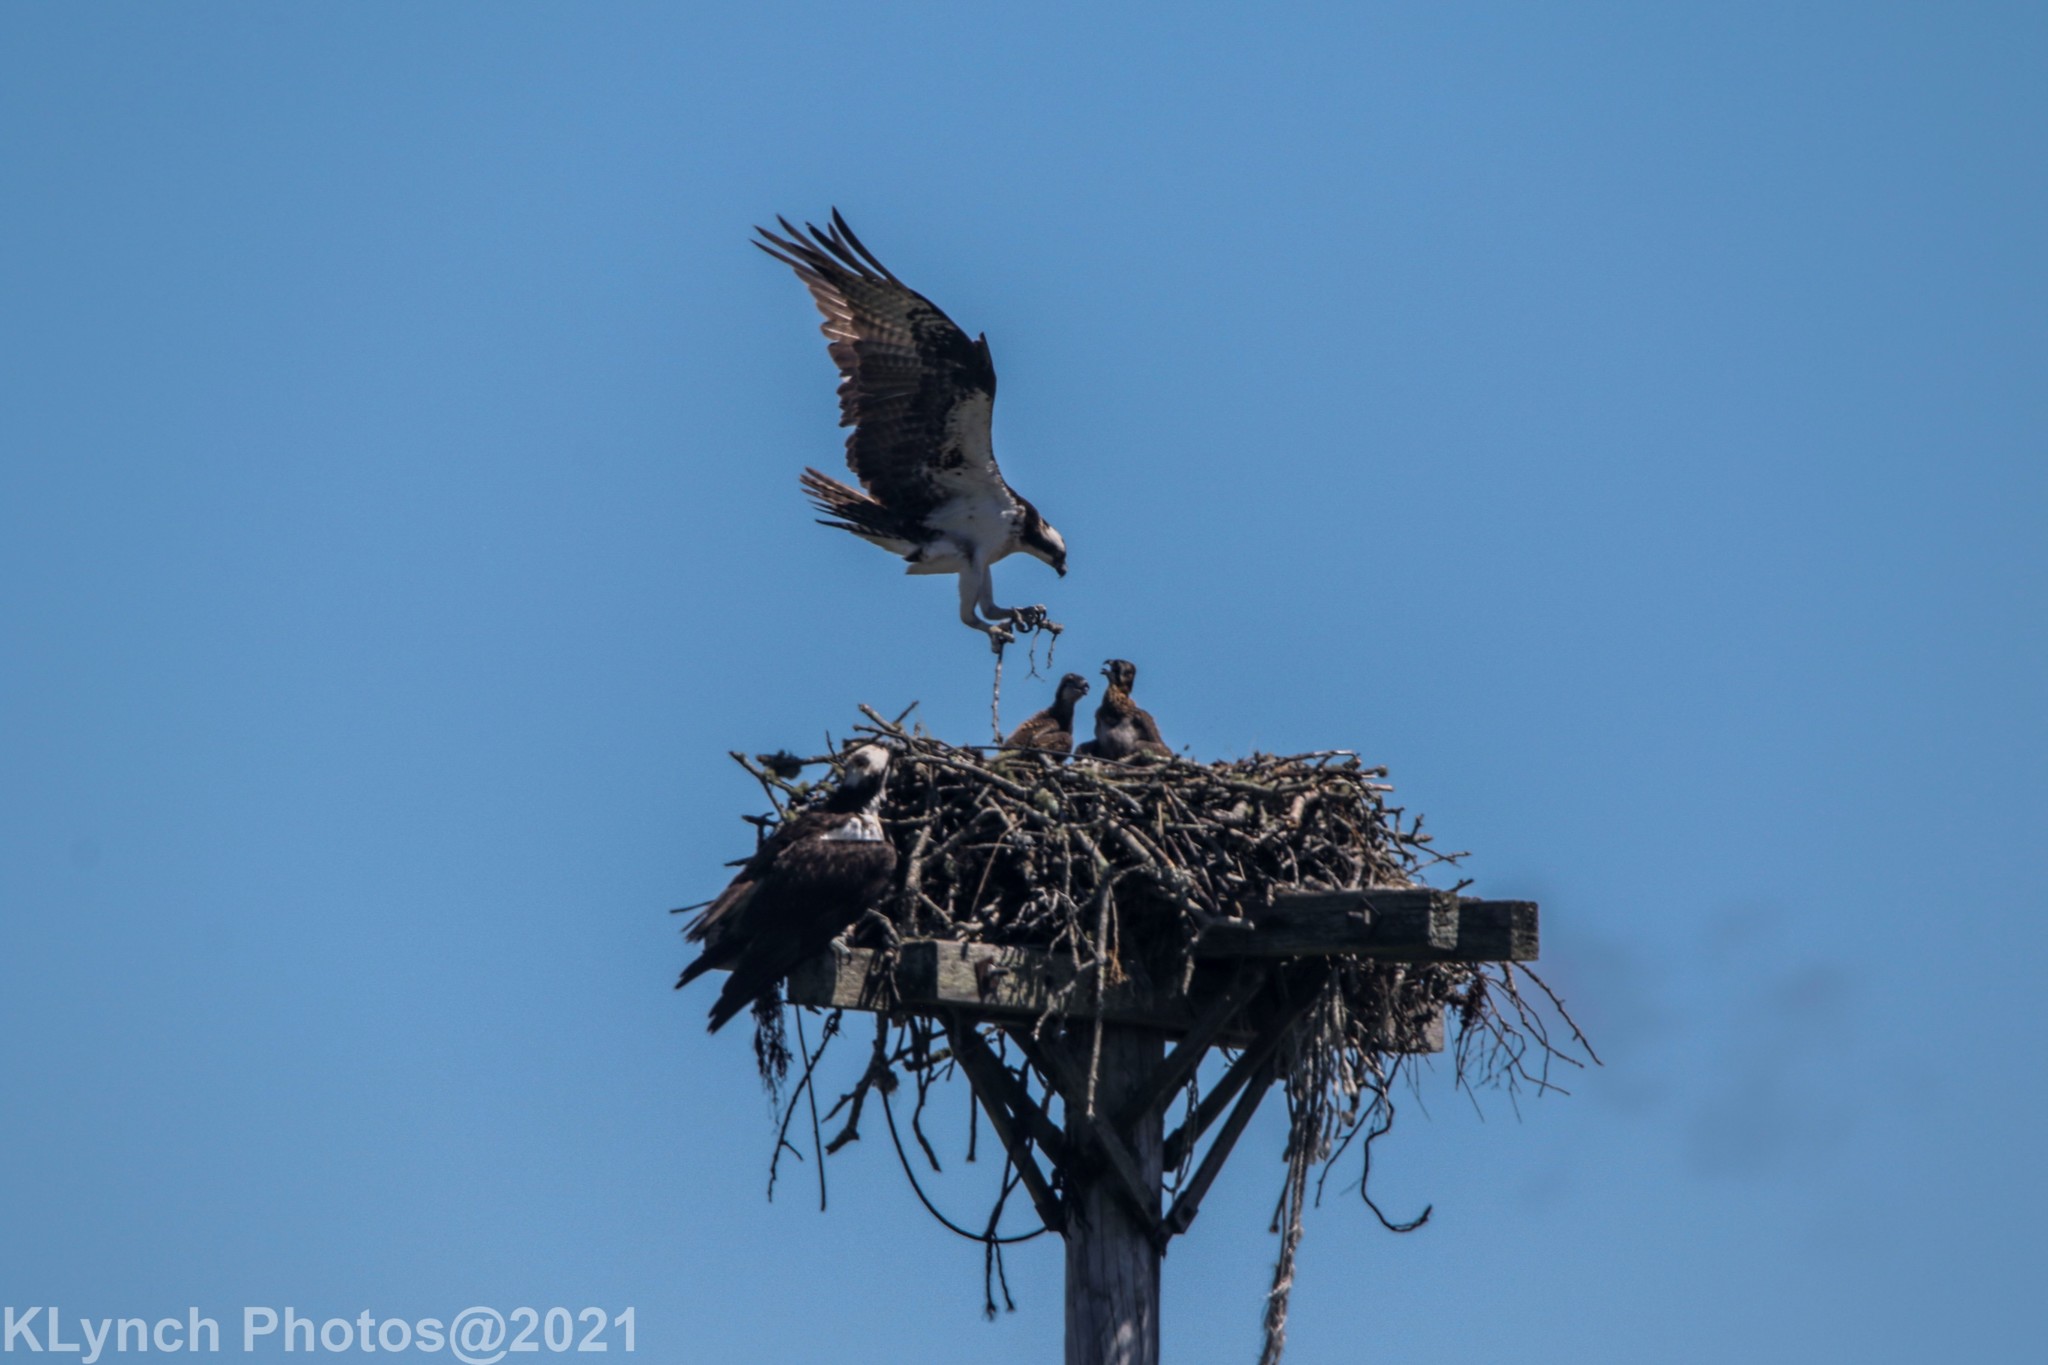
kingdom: Animalia
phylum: Chordata
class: Aves
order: Accipitriformes
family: Pandionidae
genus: Pandion
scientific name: Pandion haliaetus
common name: Osprey
